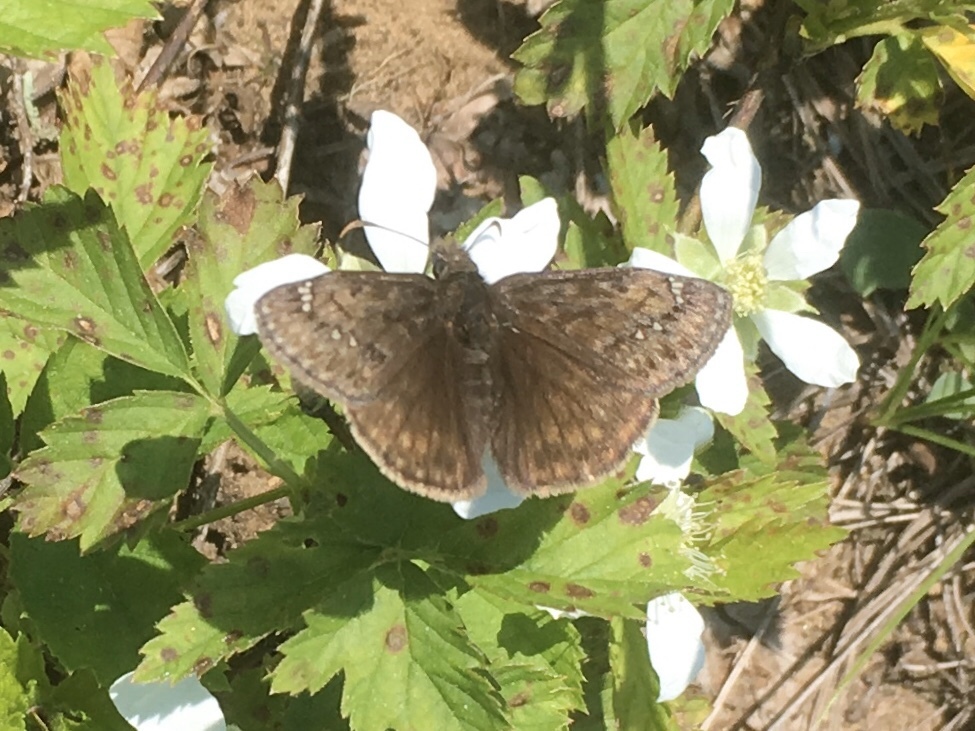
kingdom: Animalia
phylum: Arthropoda
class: Insecta
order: Lepidoptera
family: Hesperiidae
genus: Erynnis
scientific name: Erynnis juvenalis
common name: Juvenal's duskywing
